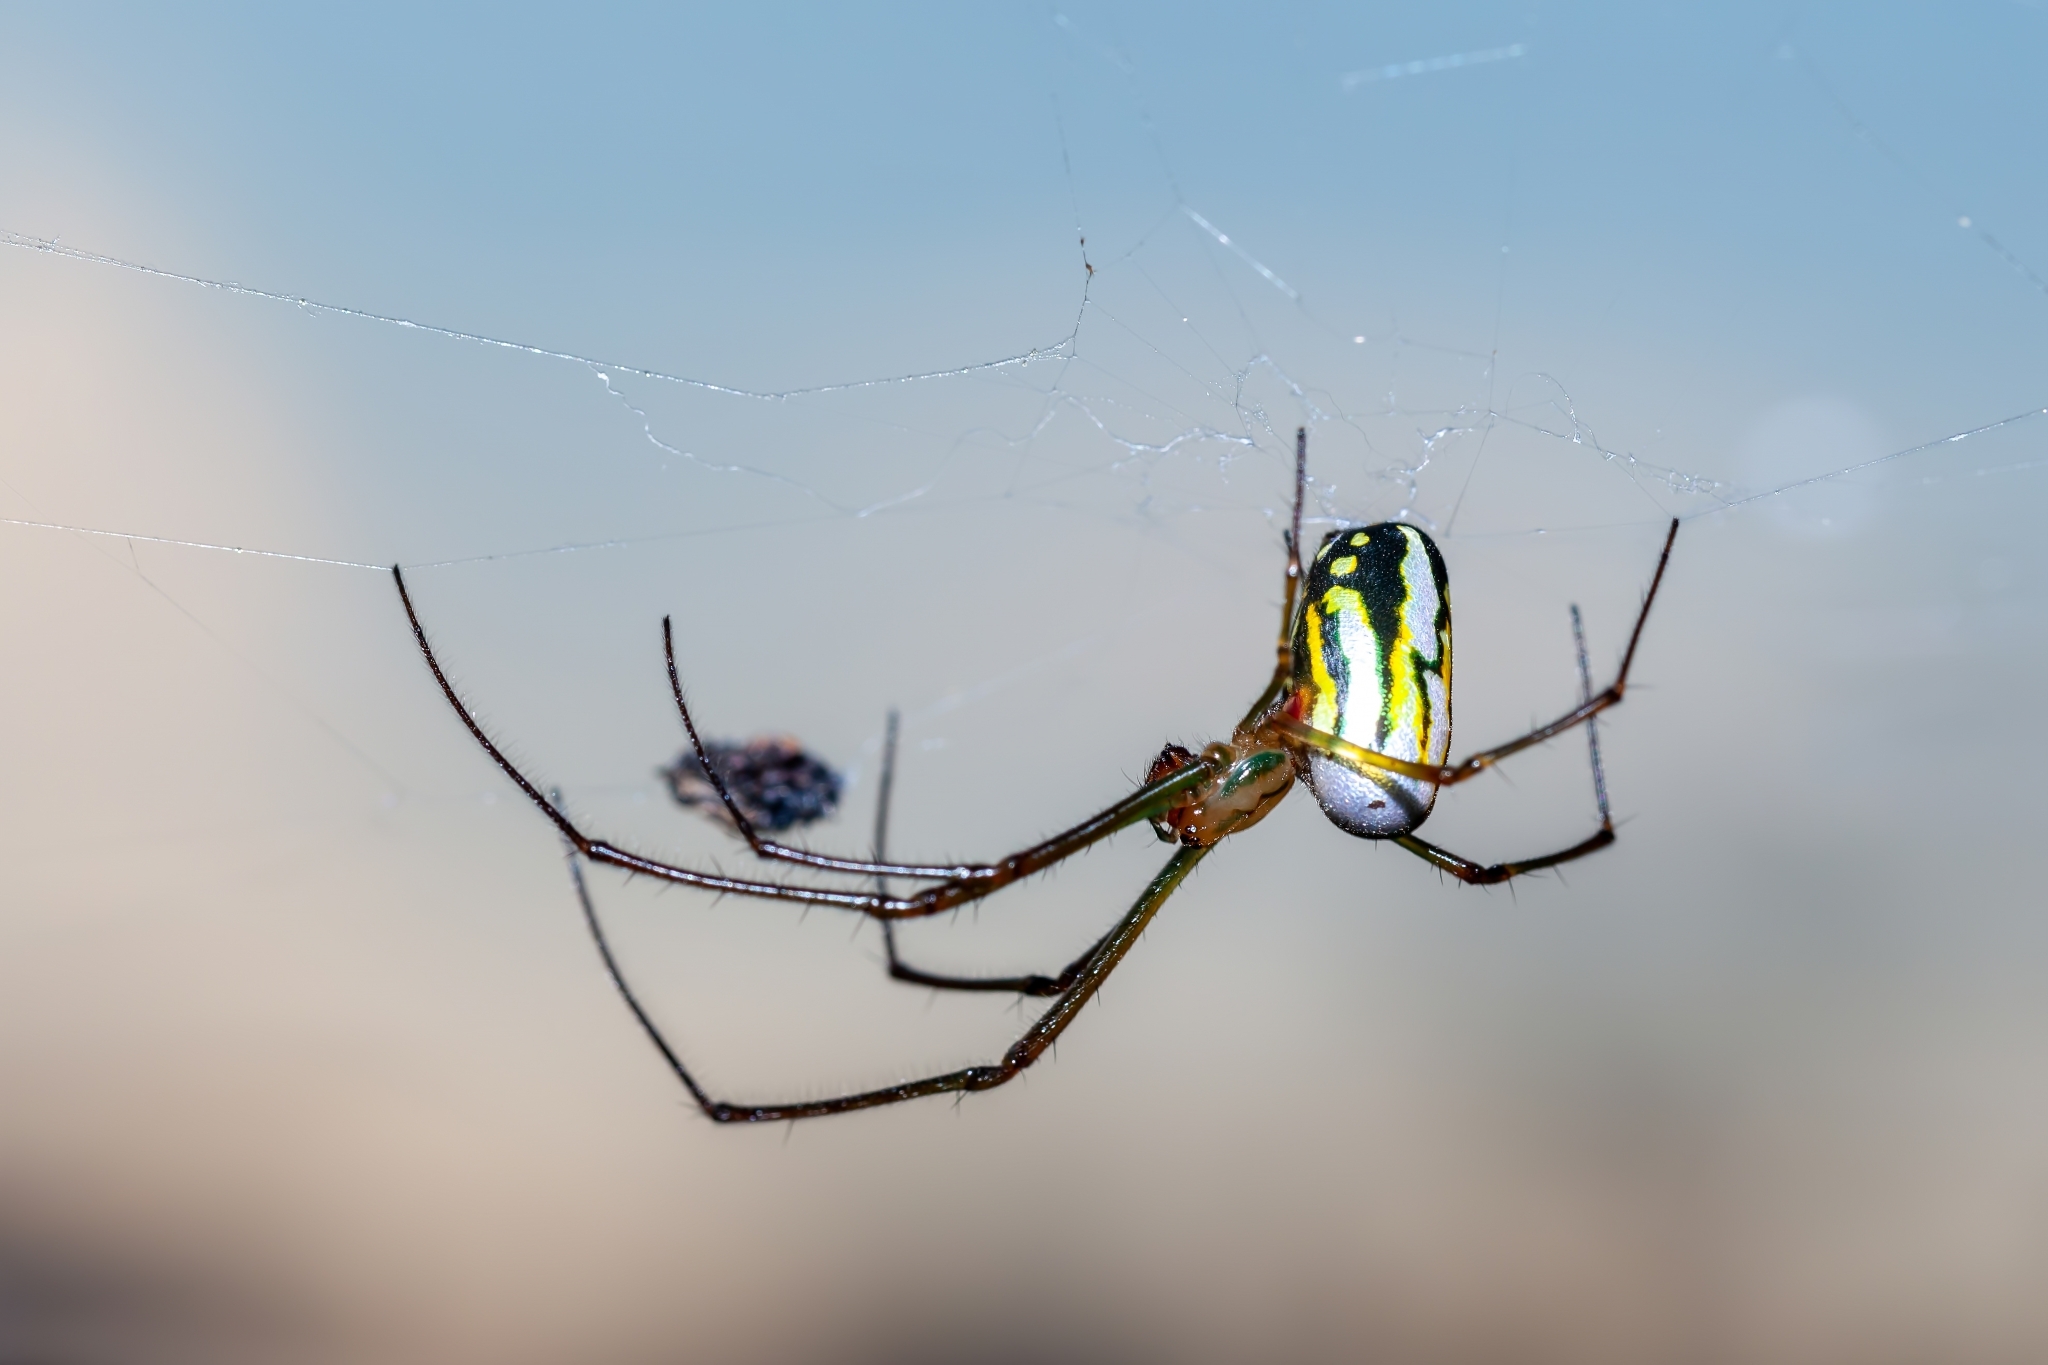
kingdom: Animalia
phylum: Arthropoda
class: Arachnida
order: Araneae
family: Tetragnathidae
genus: Leucauge
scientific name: Leucauge argyra
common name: Longjawed orb weavers
